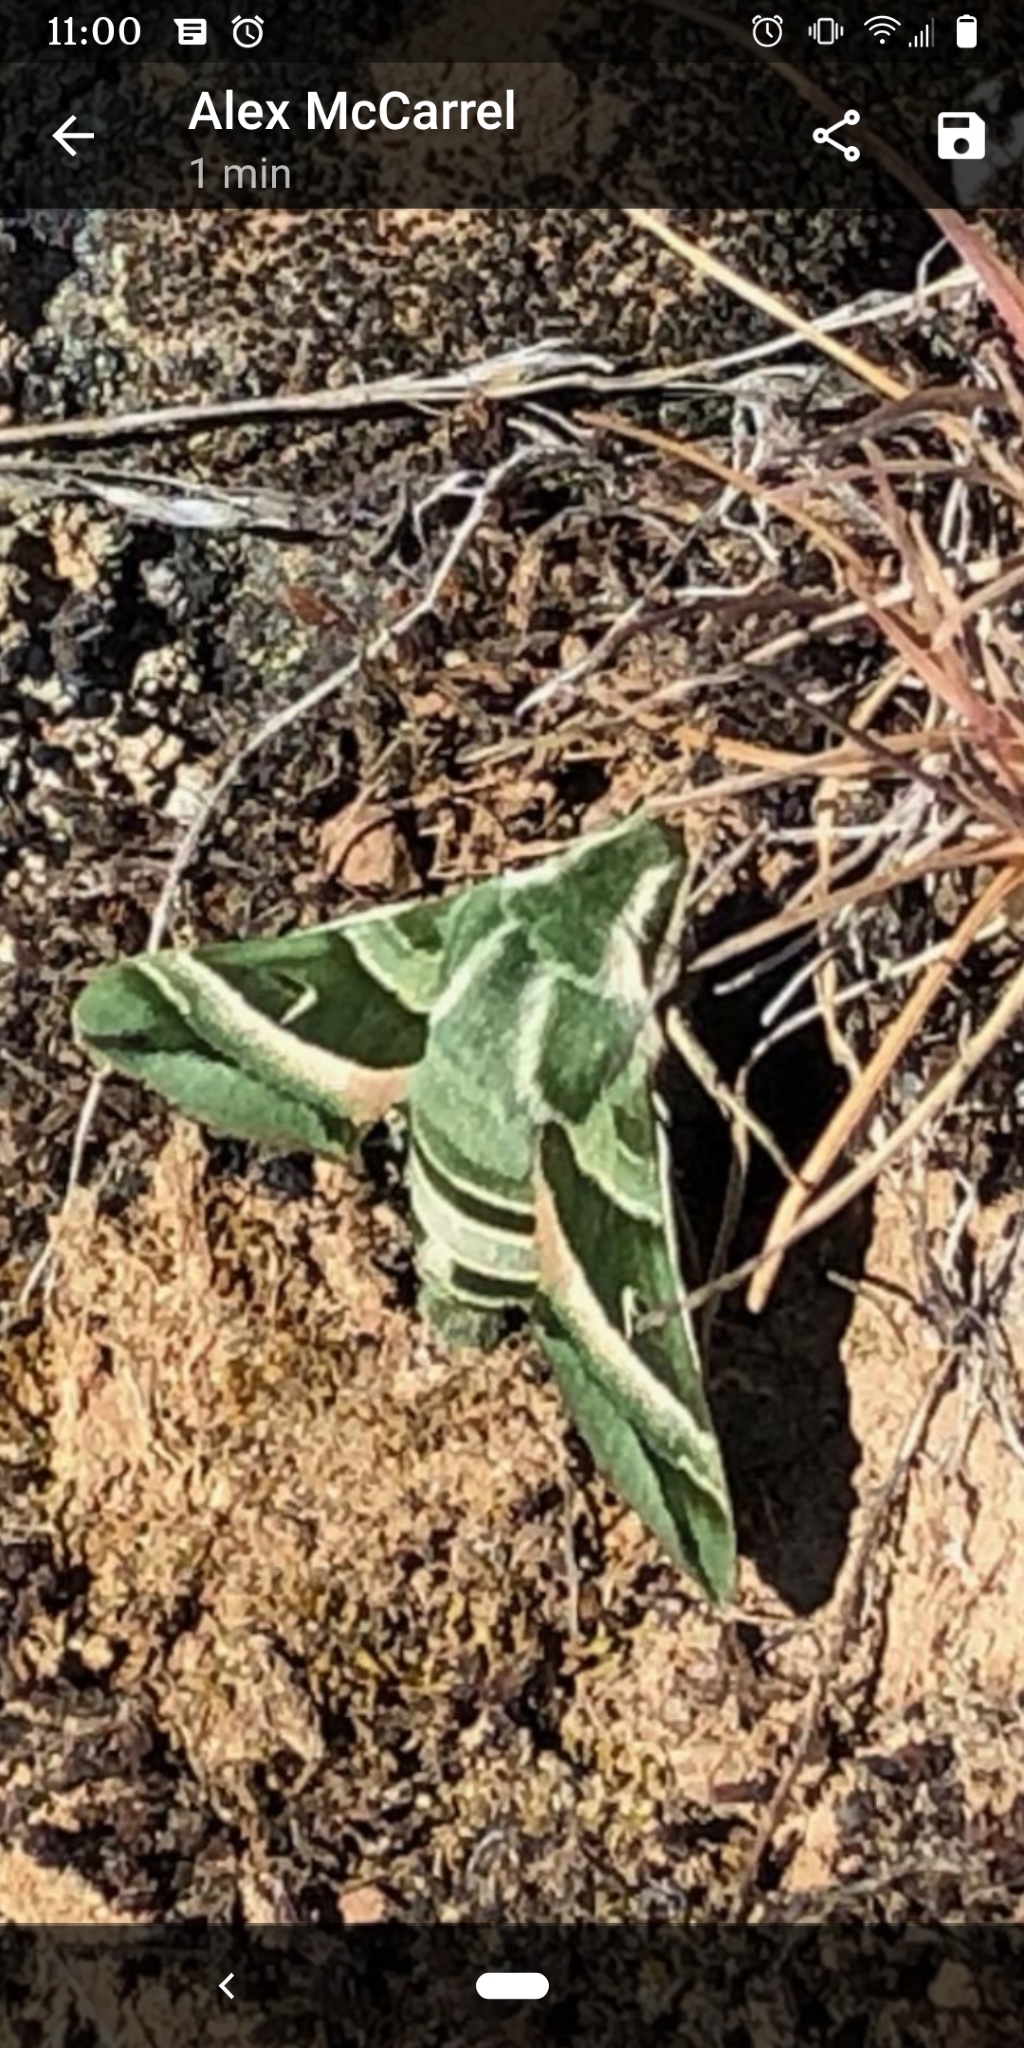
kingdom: Animalia
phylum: Arthropoda
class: Insecta
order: Lepidoptera
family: Sphingidae
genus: Proserpinus
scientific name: Proserpinus clarkiae
